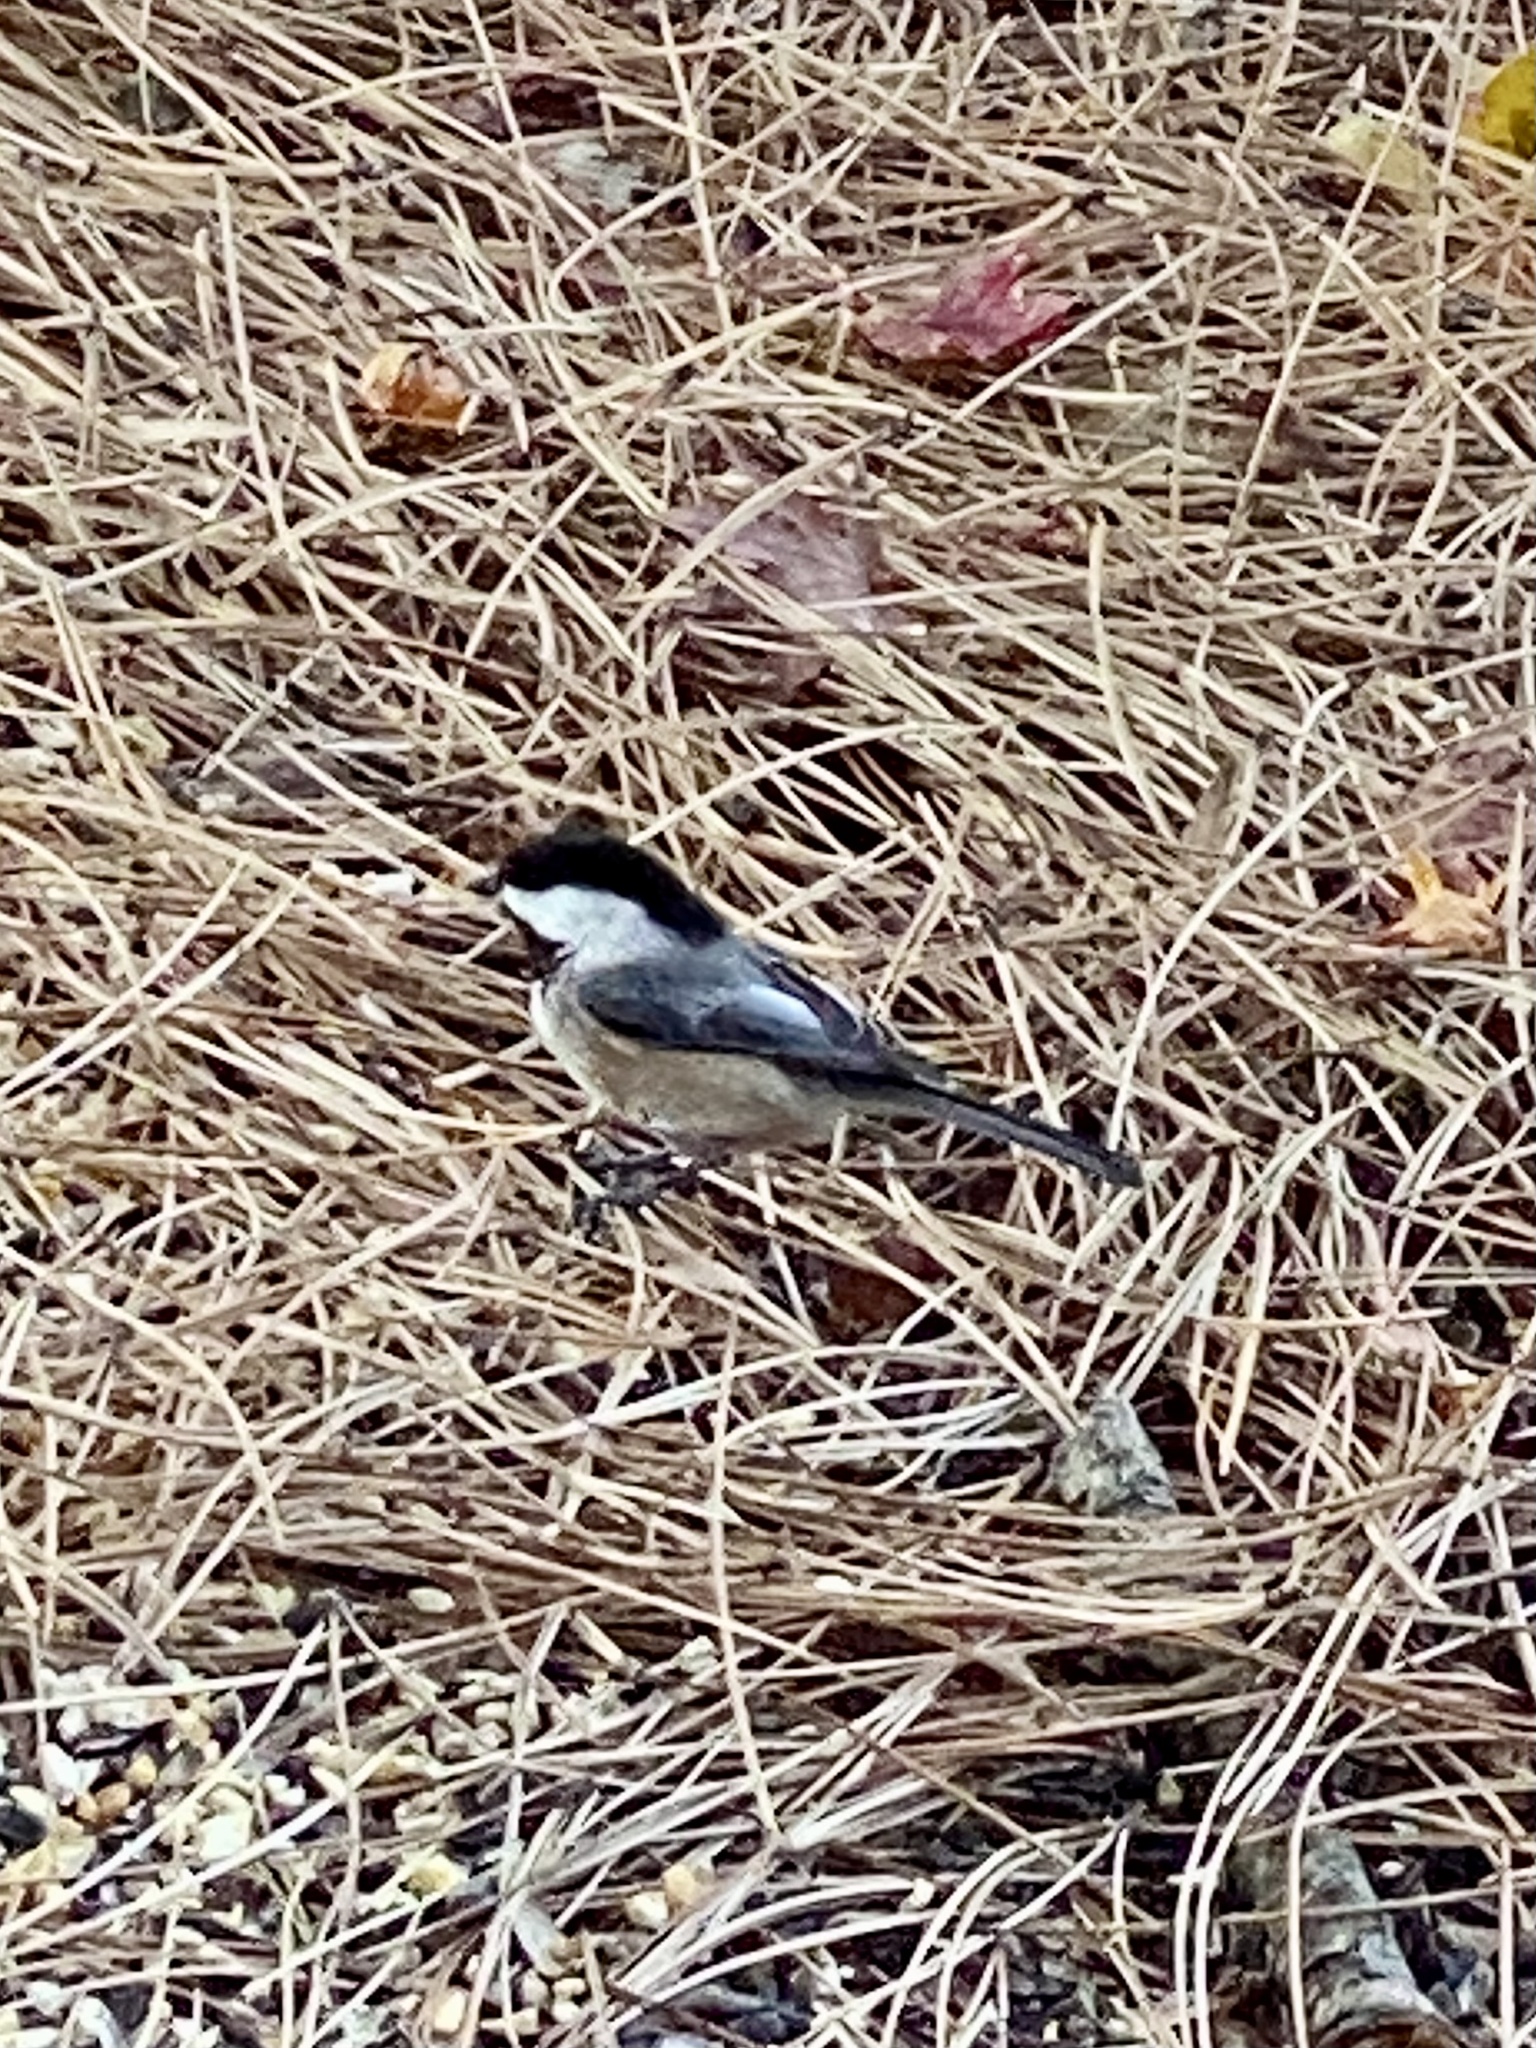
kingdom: Animalia
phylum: Chordata
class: Aves
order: Passeriformes
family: Paridae
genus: Poecile
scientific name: Poecile atricapillus
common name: Black-capped chickadee
